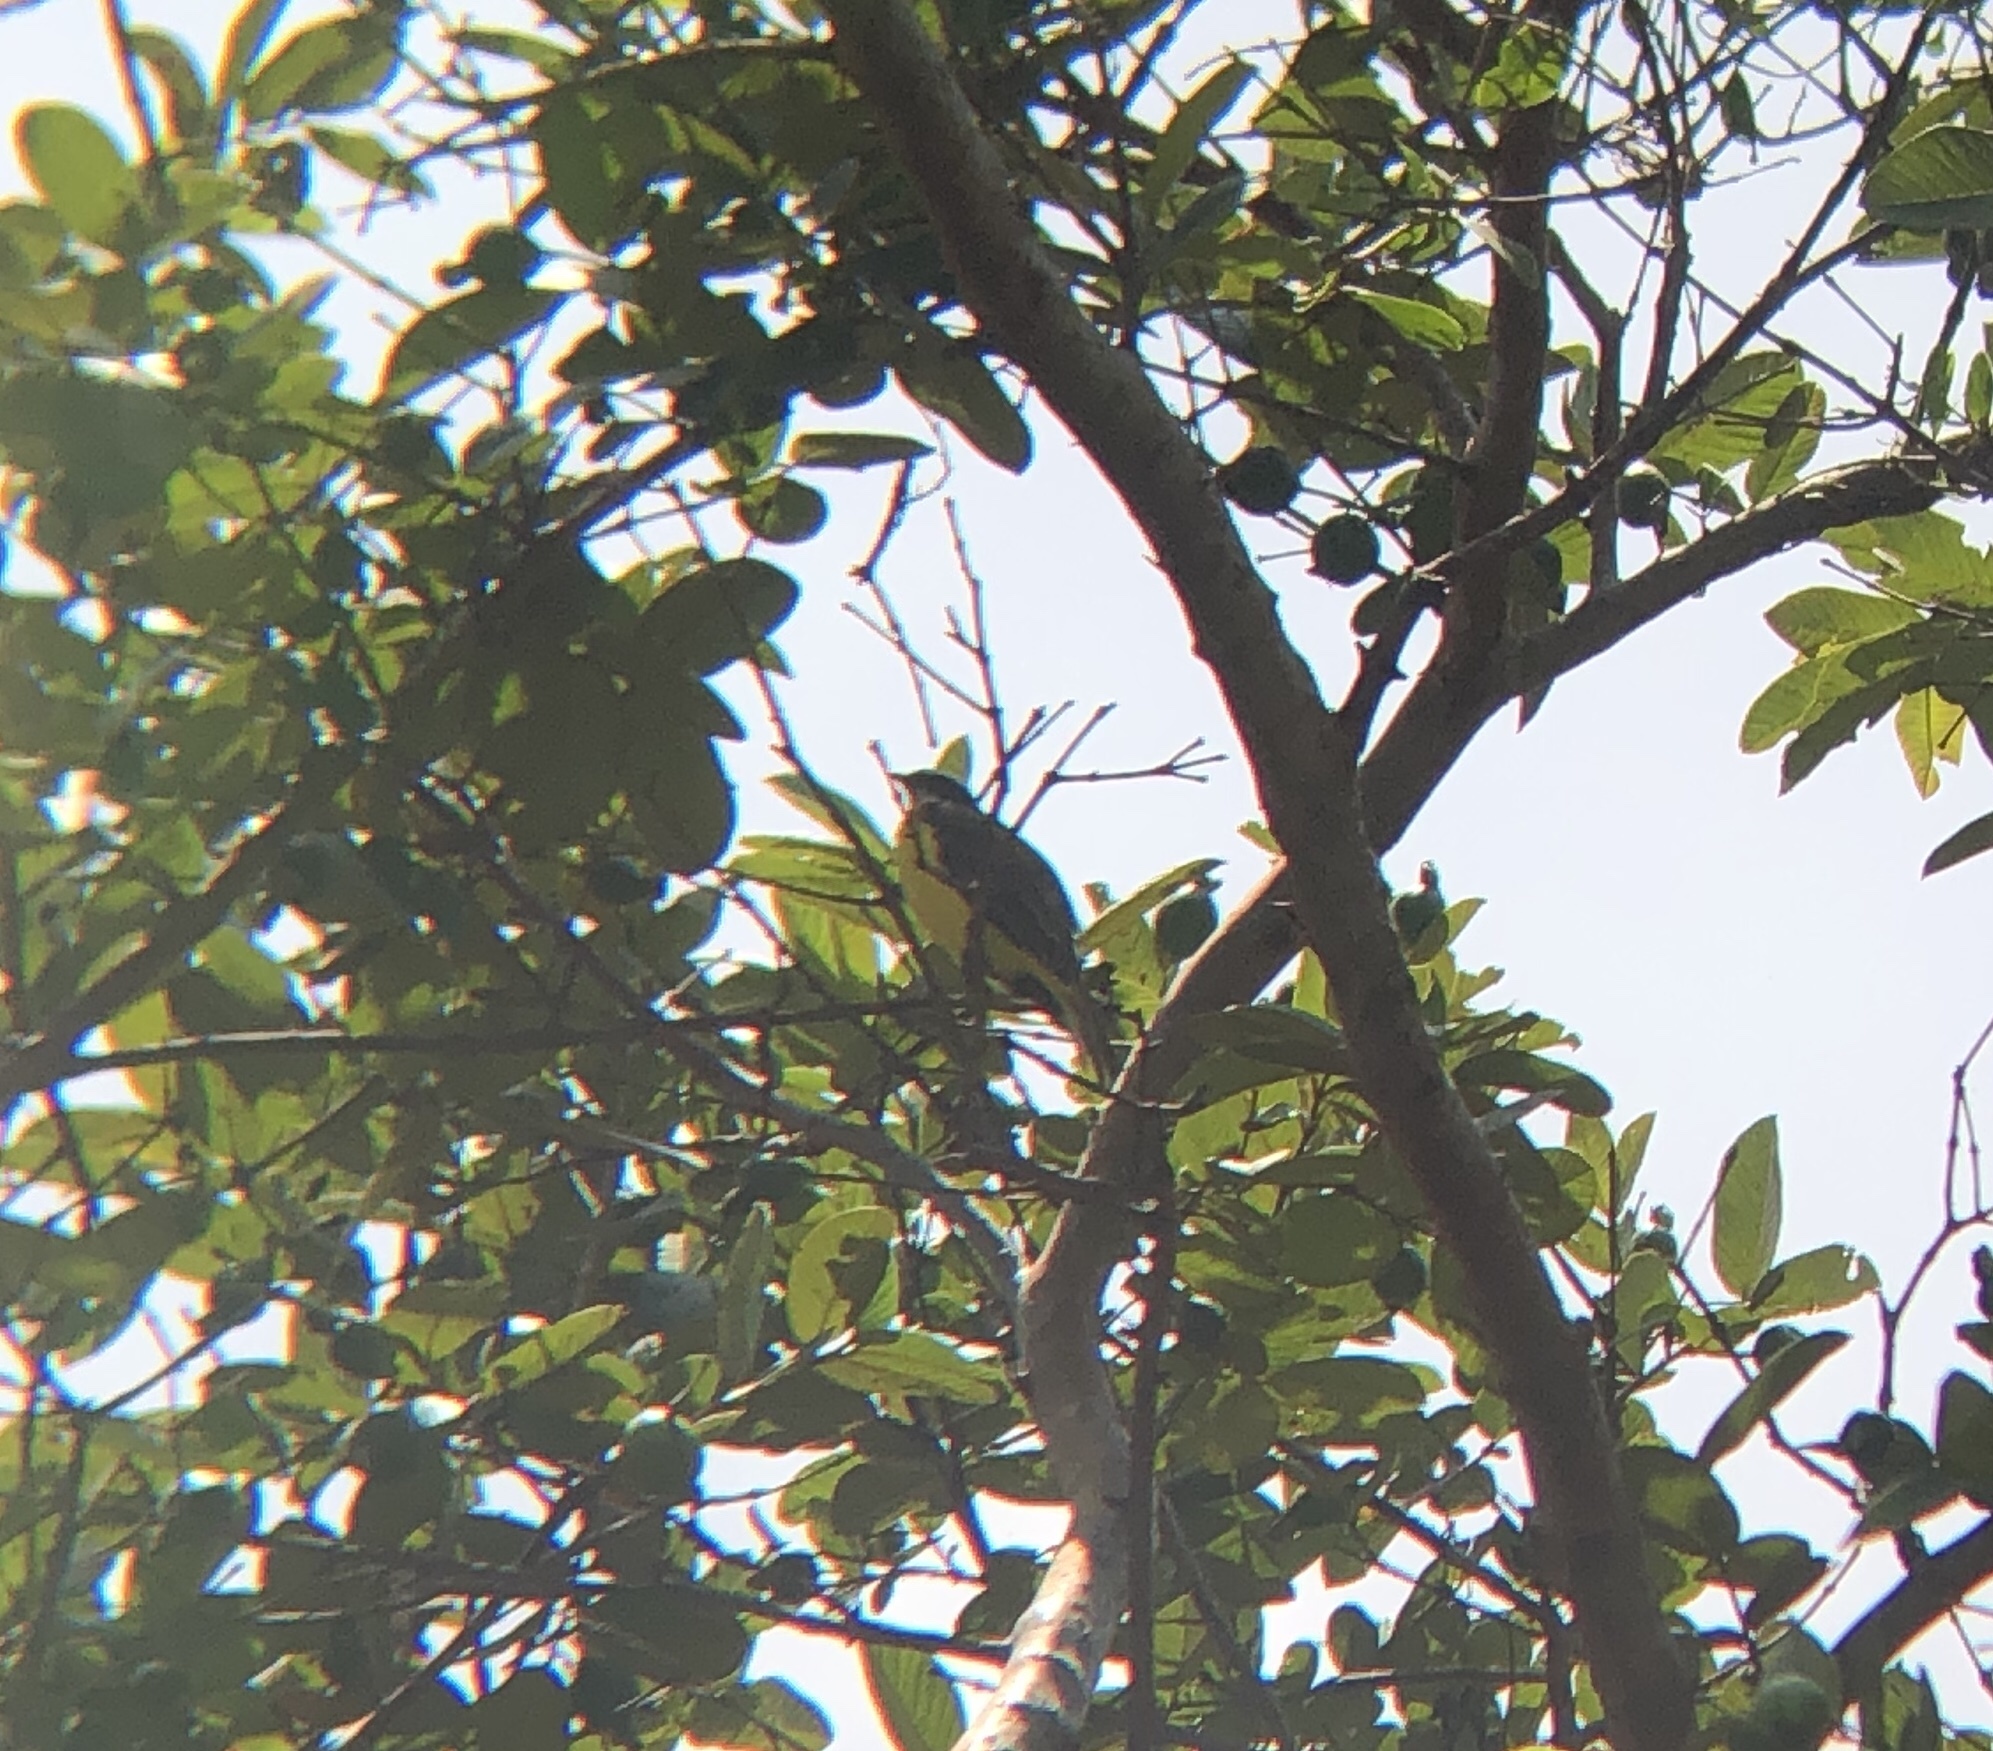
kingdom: Animalia
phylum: Chordata
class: Aves
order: Passeriformes
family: Tyrannidae
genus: Myiozetetes
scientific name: Myiozetetes similis
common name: Social flycatcher
